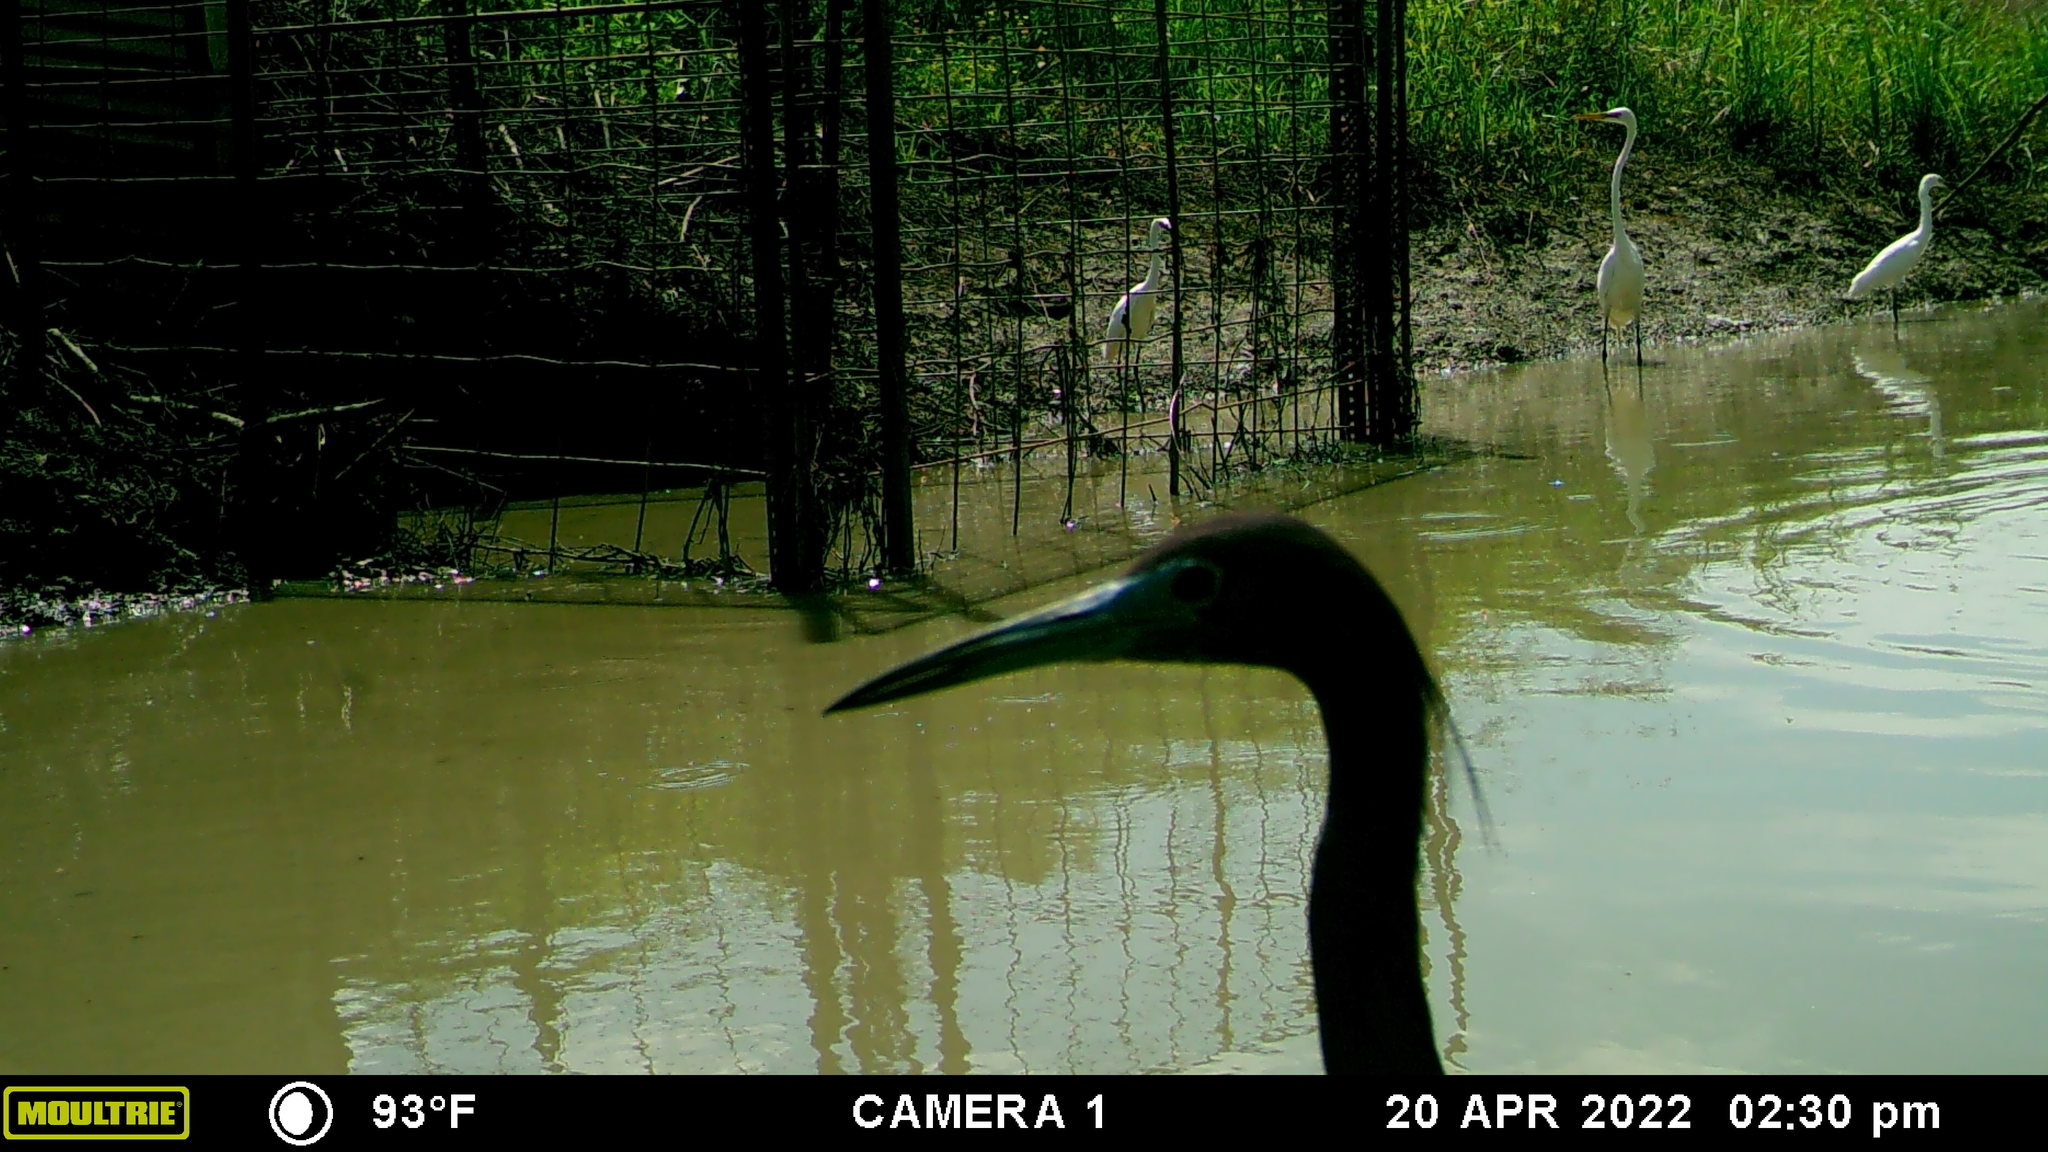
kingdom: Animalia
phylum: Chordata
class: Aves
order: Pelecaniformes
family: Ardeidae
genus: Egretta
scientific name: Egretta caerulea
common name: Little blue heron
